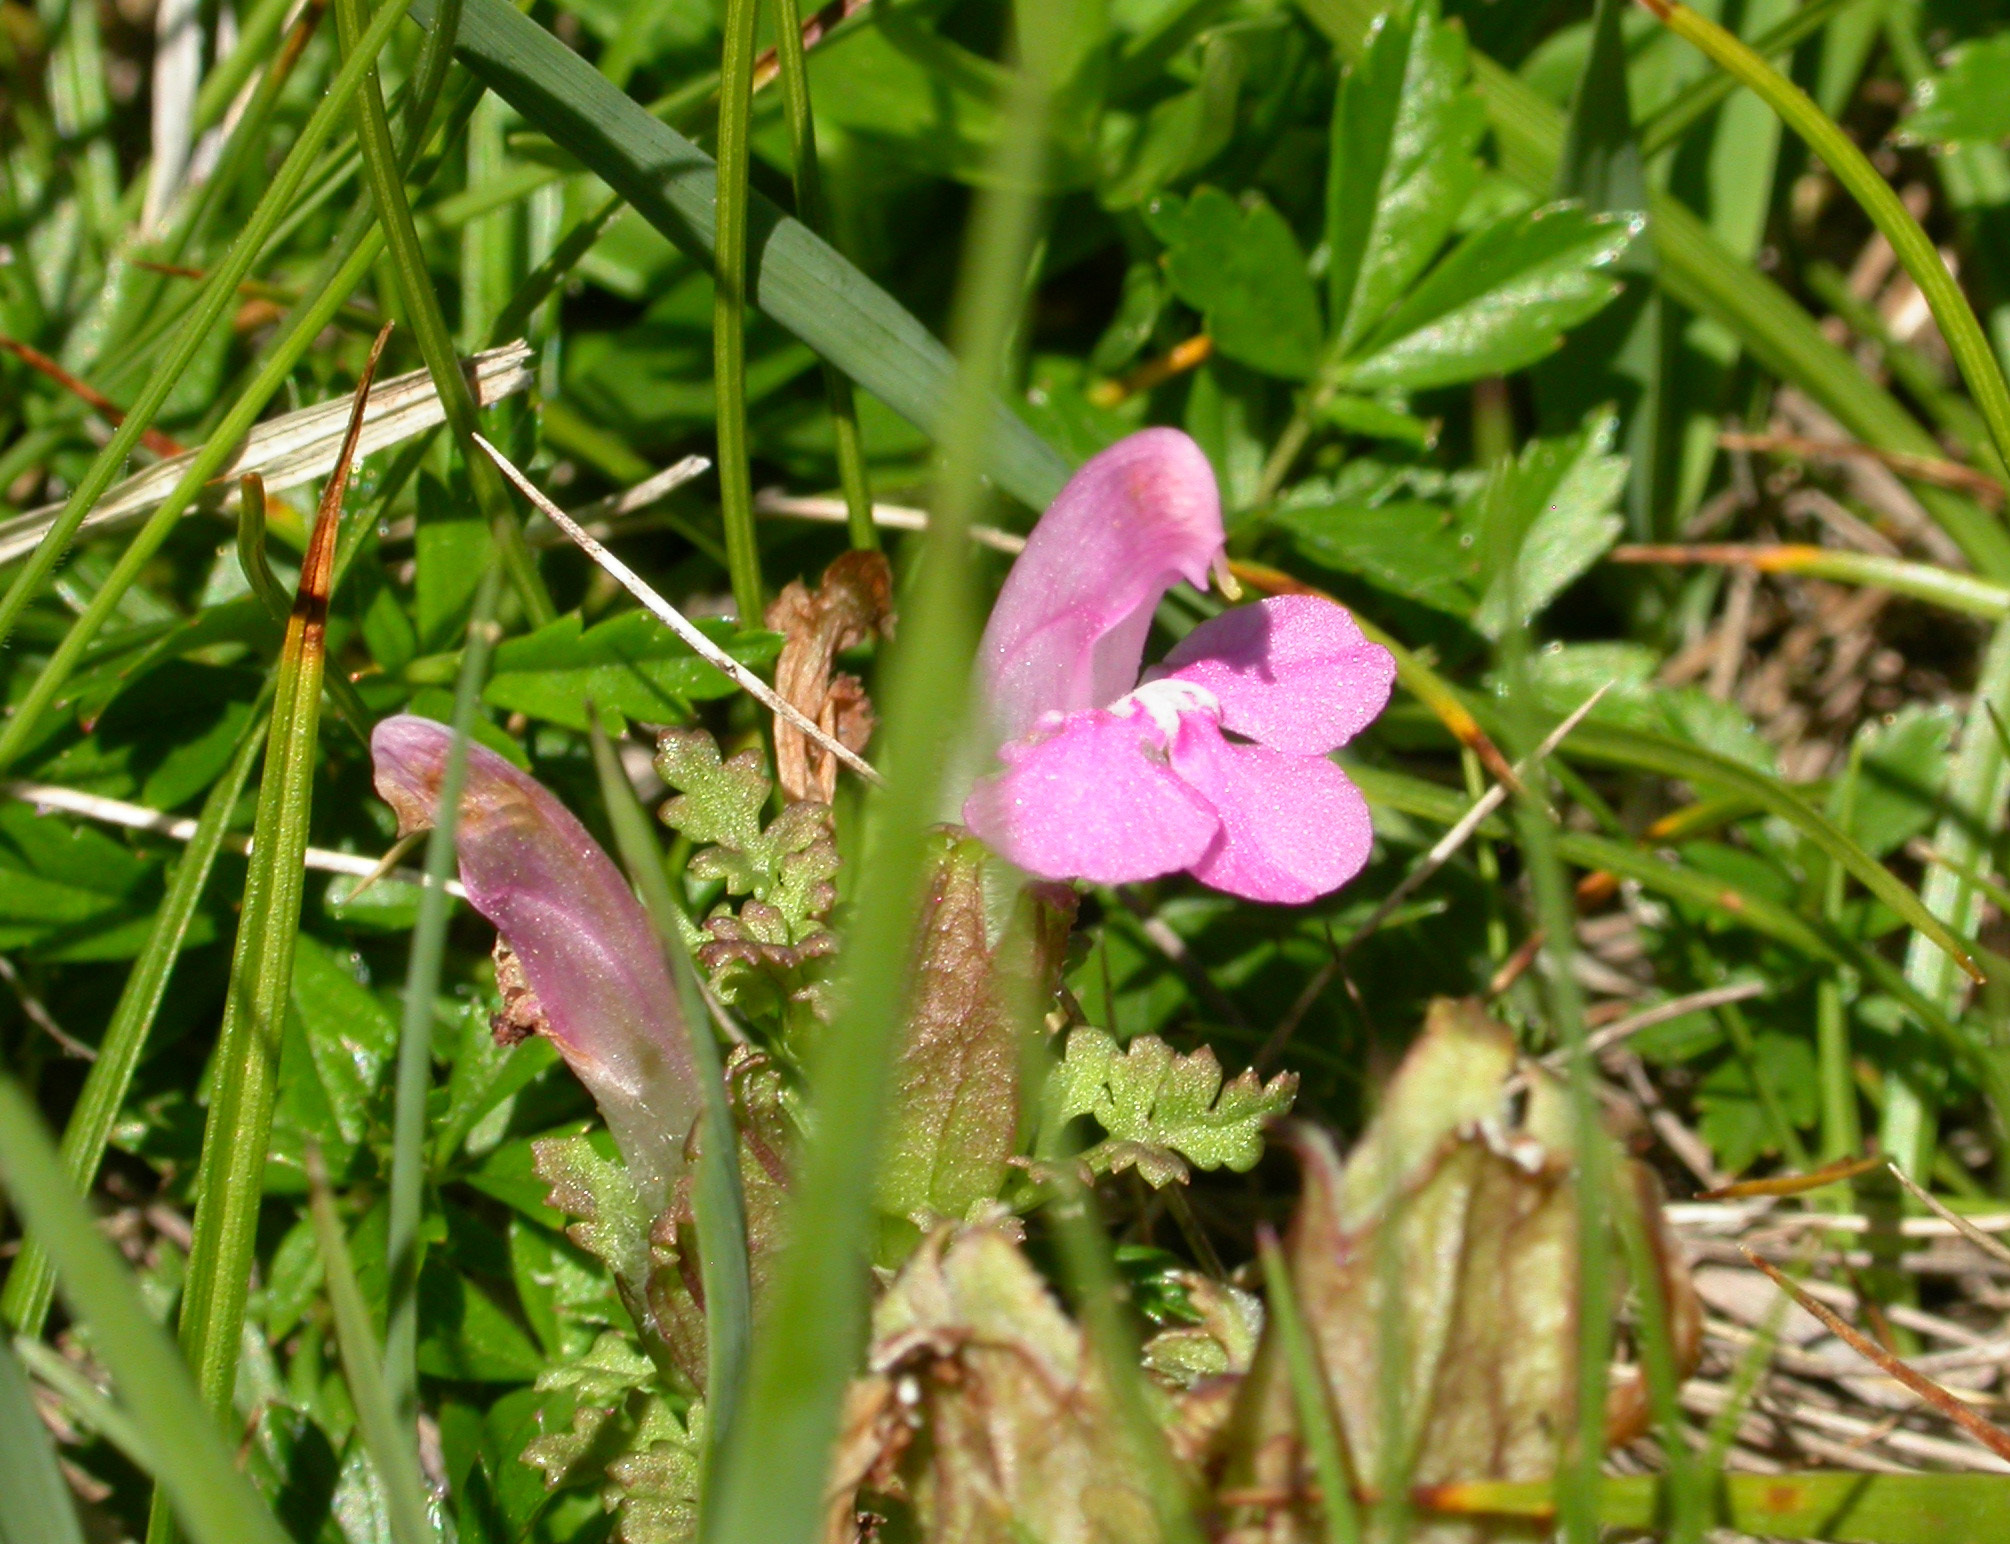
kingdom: Plantae
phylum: Tracheophyta
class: Magnoliopsida
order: Lamiales
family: Orobanchaceae
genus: Pedicularis
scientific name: Pedicularis sylvatica
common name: Lousewort
